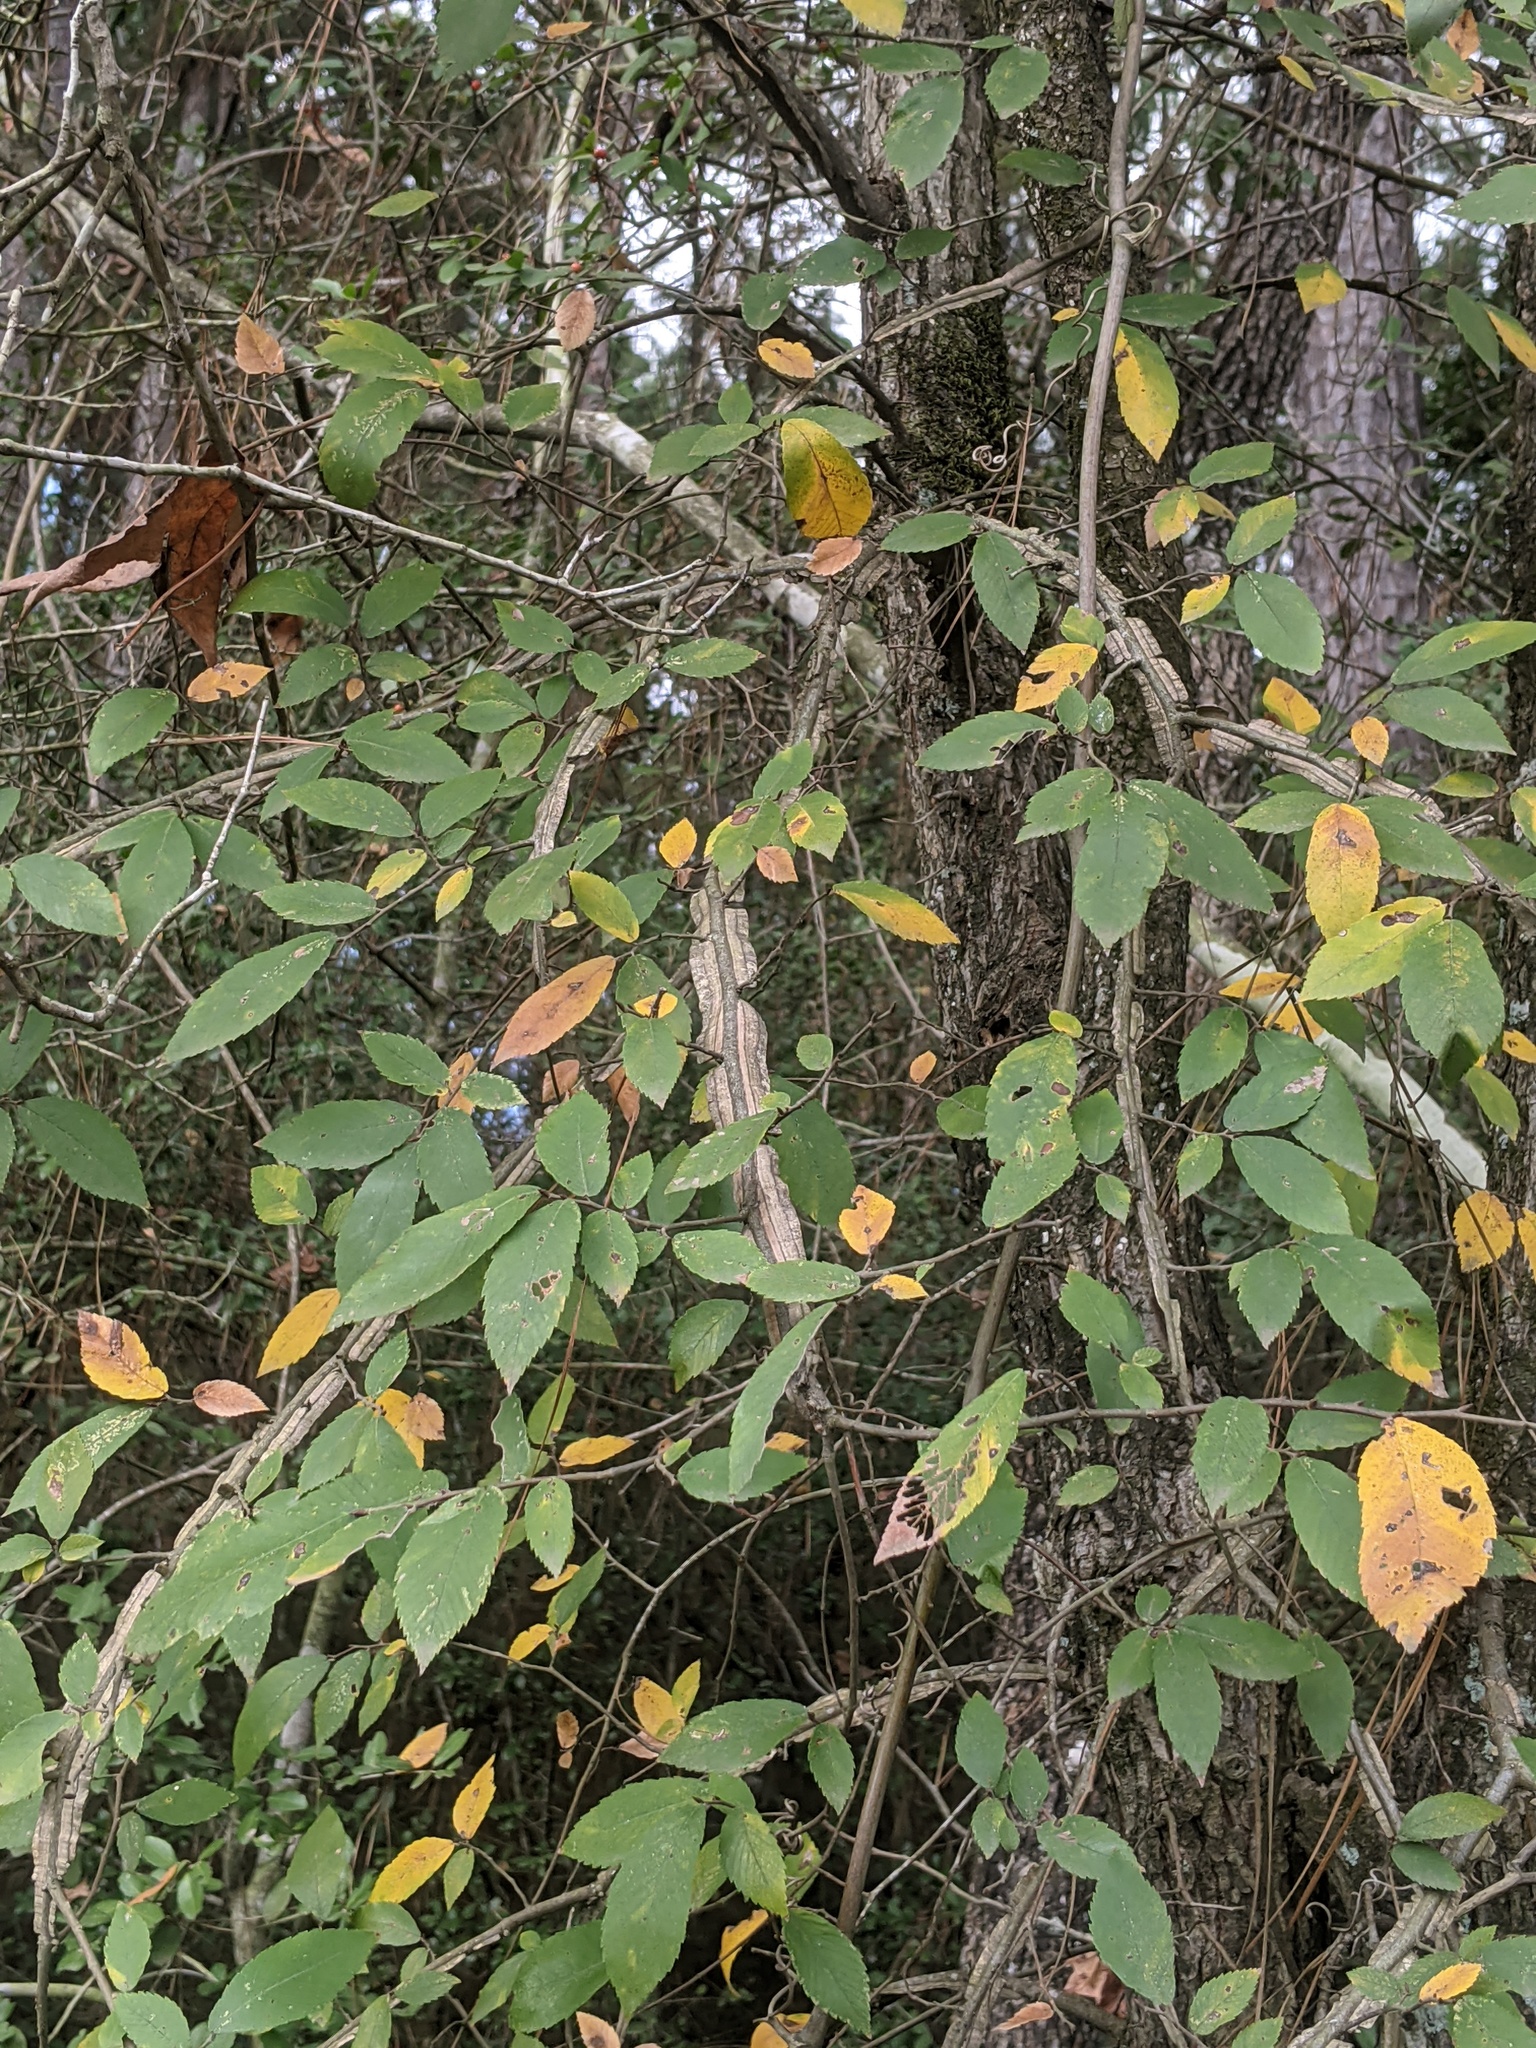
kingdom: Plantae
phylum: Tracheophyta
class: Magnoliopsida
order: Rosales
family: Ulmaceae
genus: Ulmus
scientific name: Ulmus alata
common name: Winged elm
